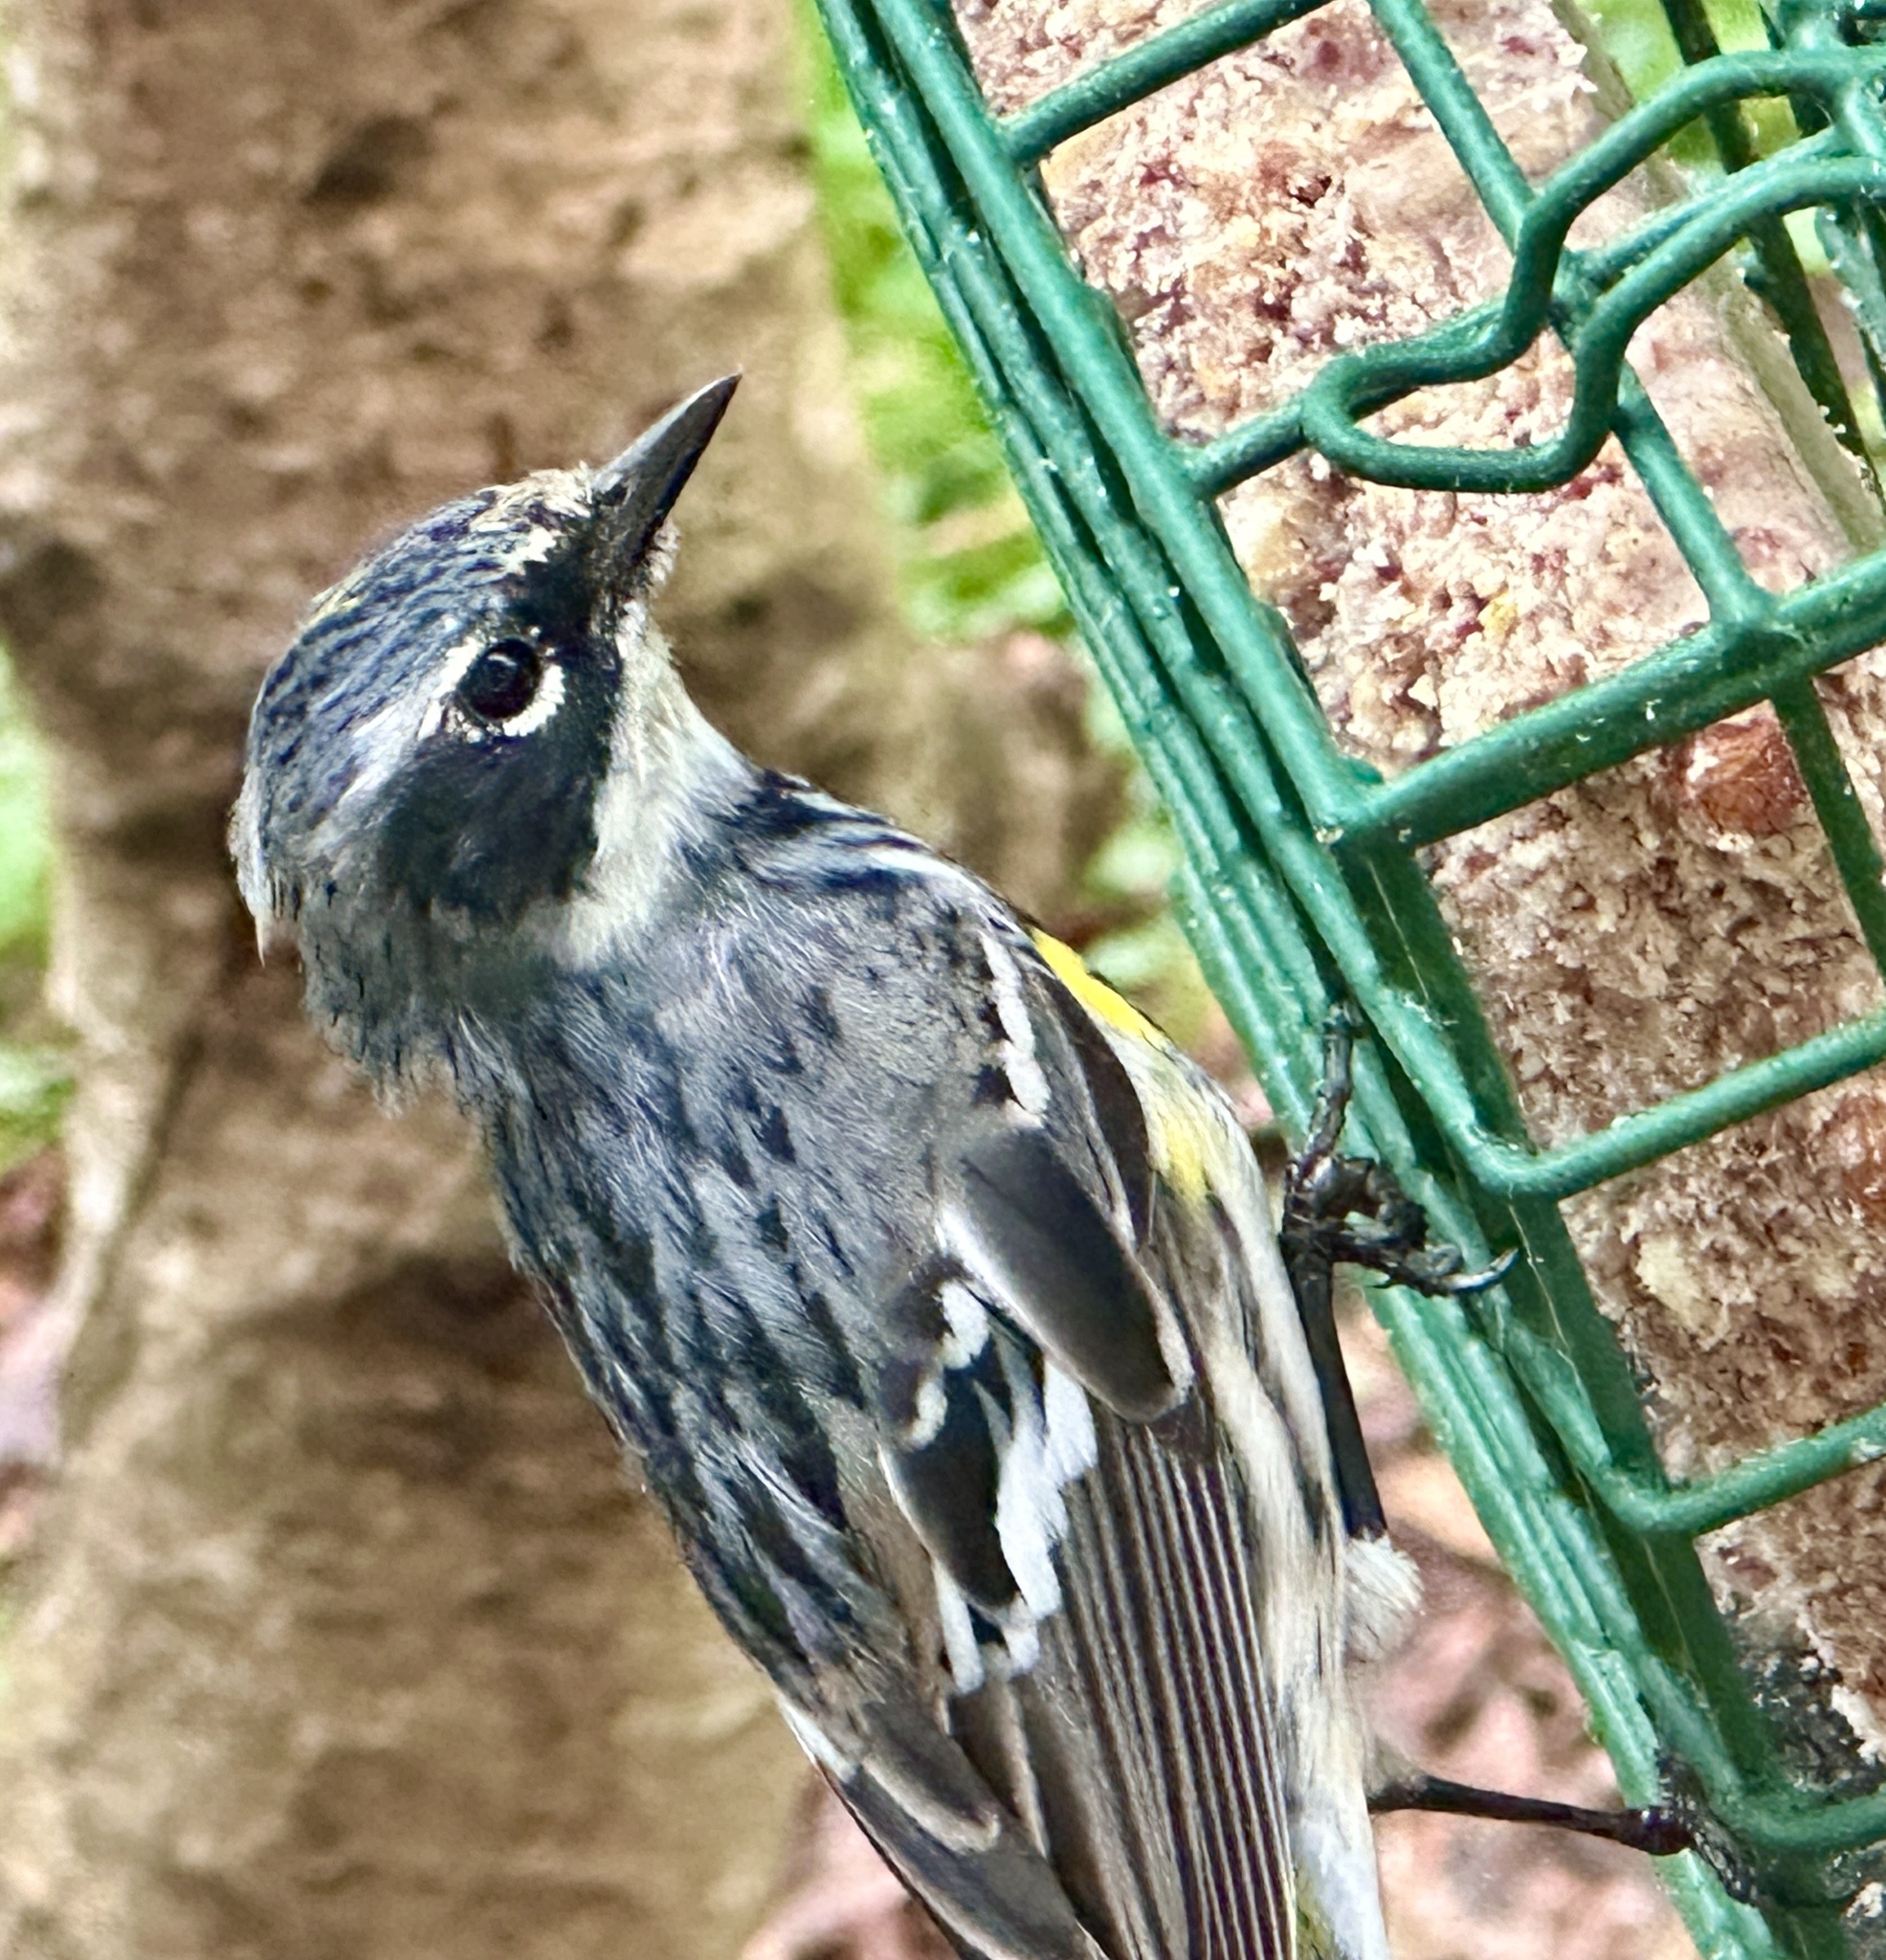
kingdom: Animalia
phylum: Chordata
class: Aves
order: Passeriformes
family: Parulidae
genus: Setophaga
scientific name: Setophaga coronata
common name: Myrtle warbler
